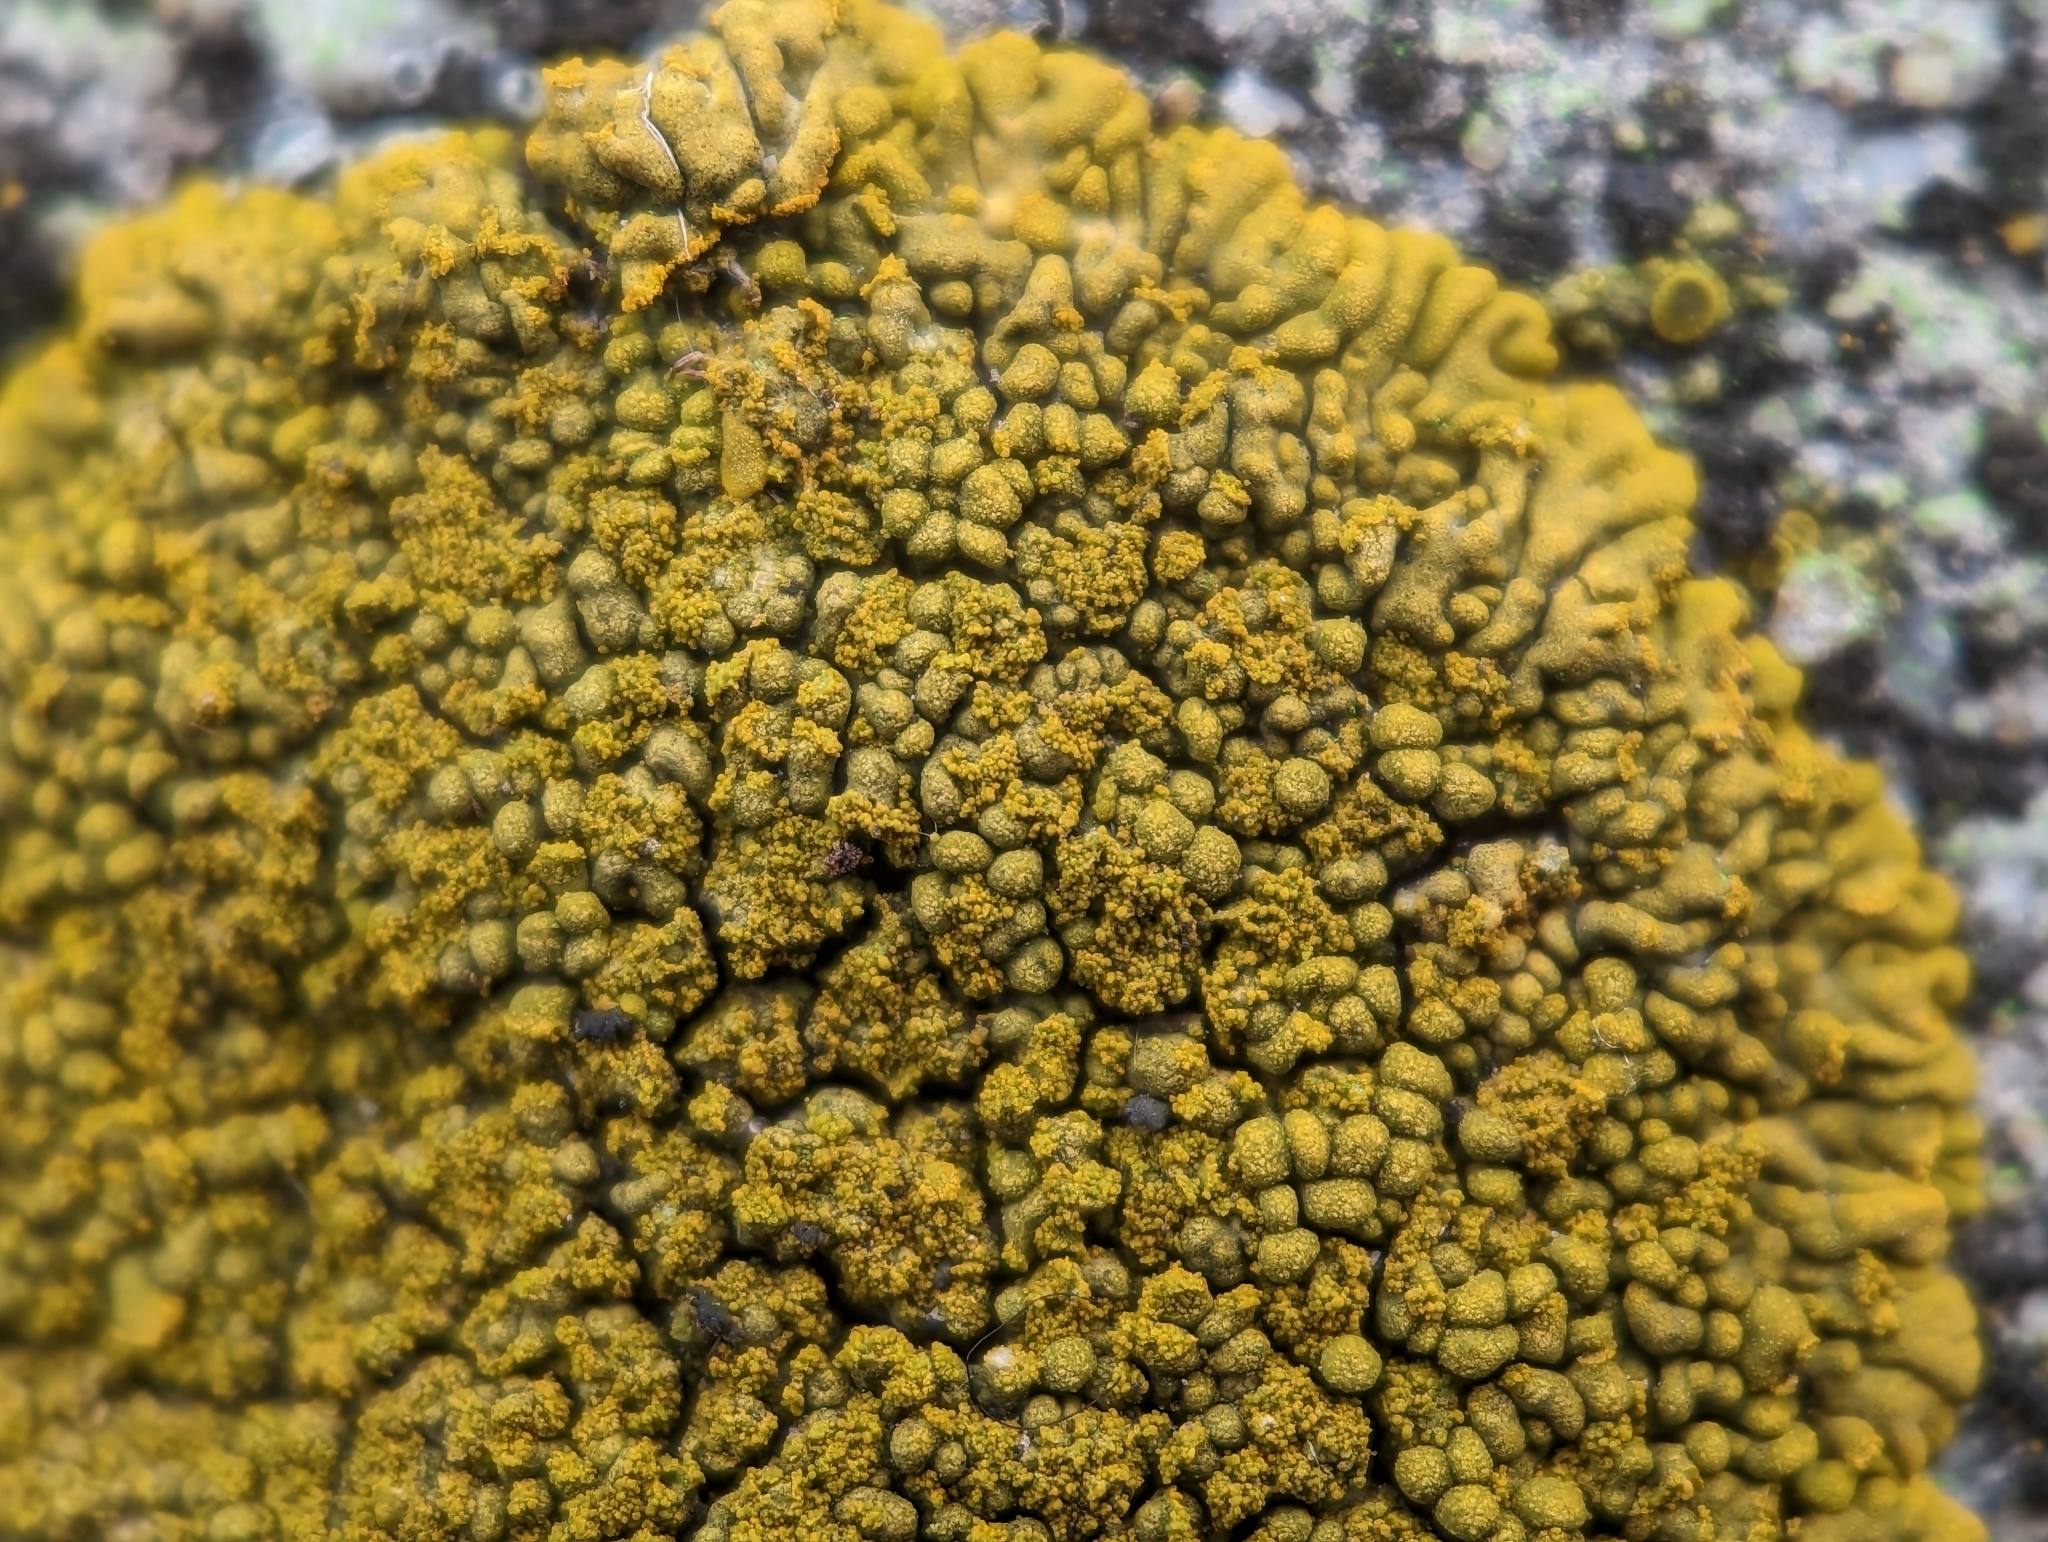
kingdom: Fungi
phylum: Ascomycota
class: Lecanoromycetes
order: Teloschistales
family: Teloschistaceae
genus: Calogaya
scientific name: Calogaya decipiens
